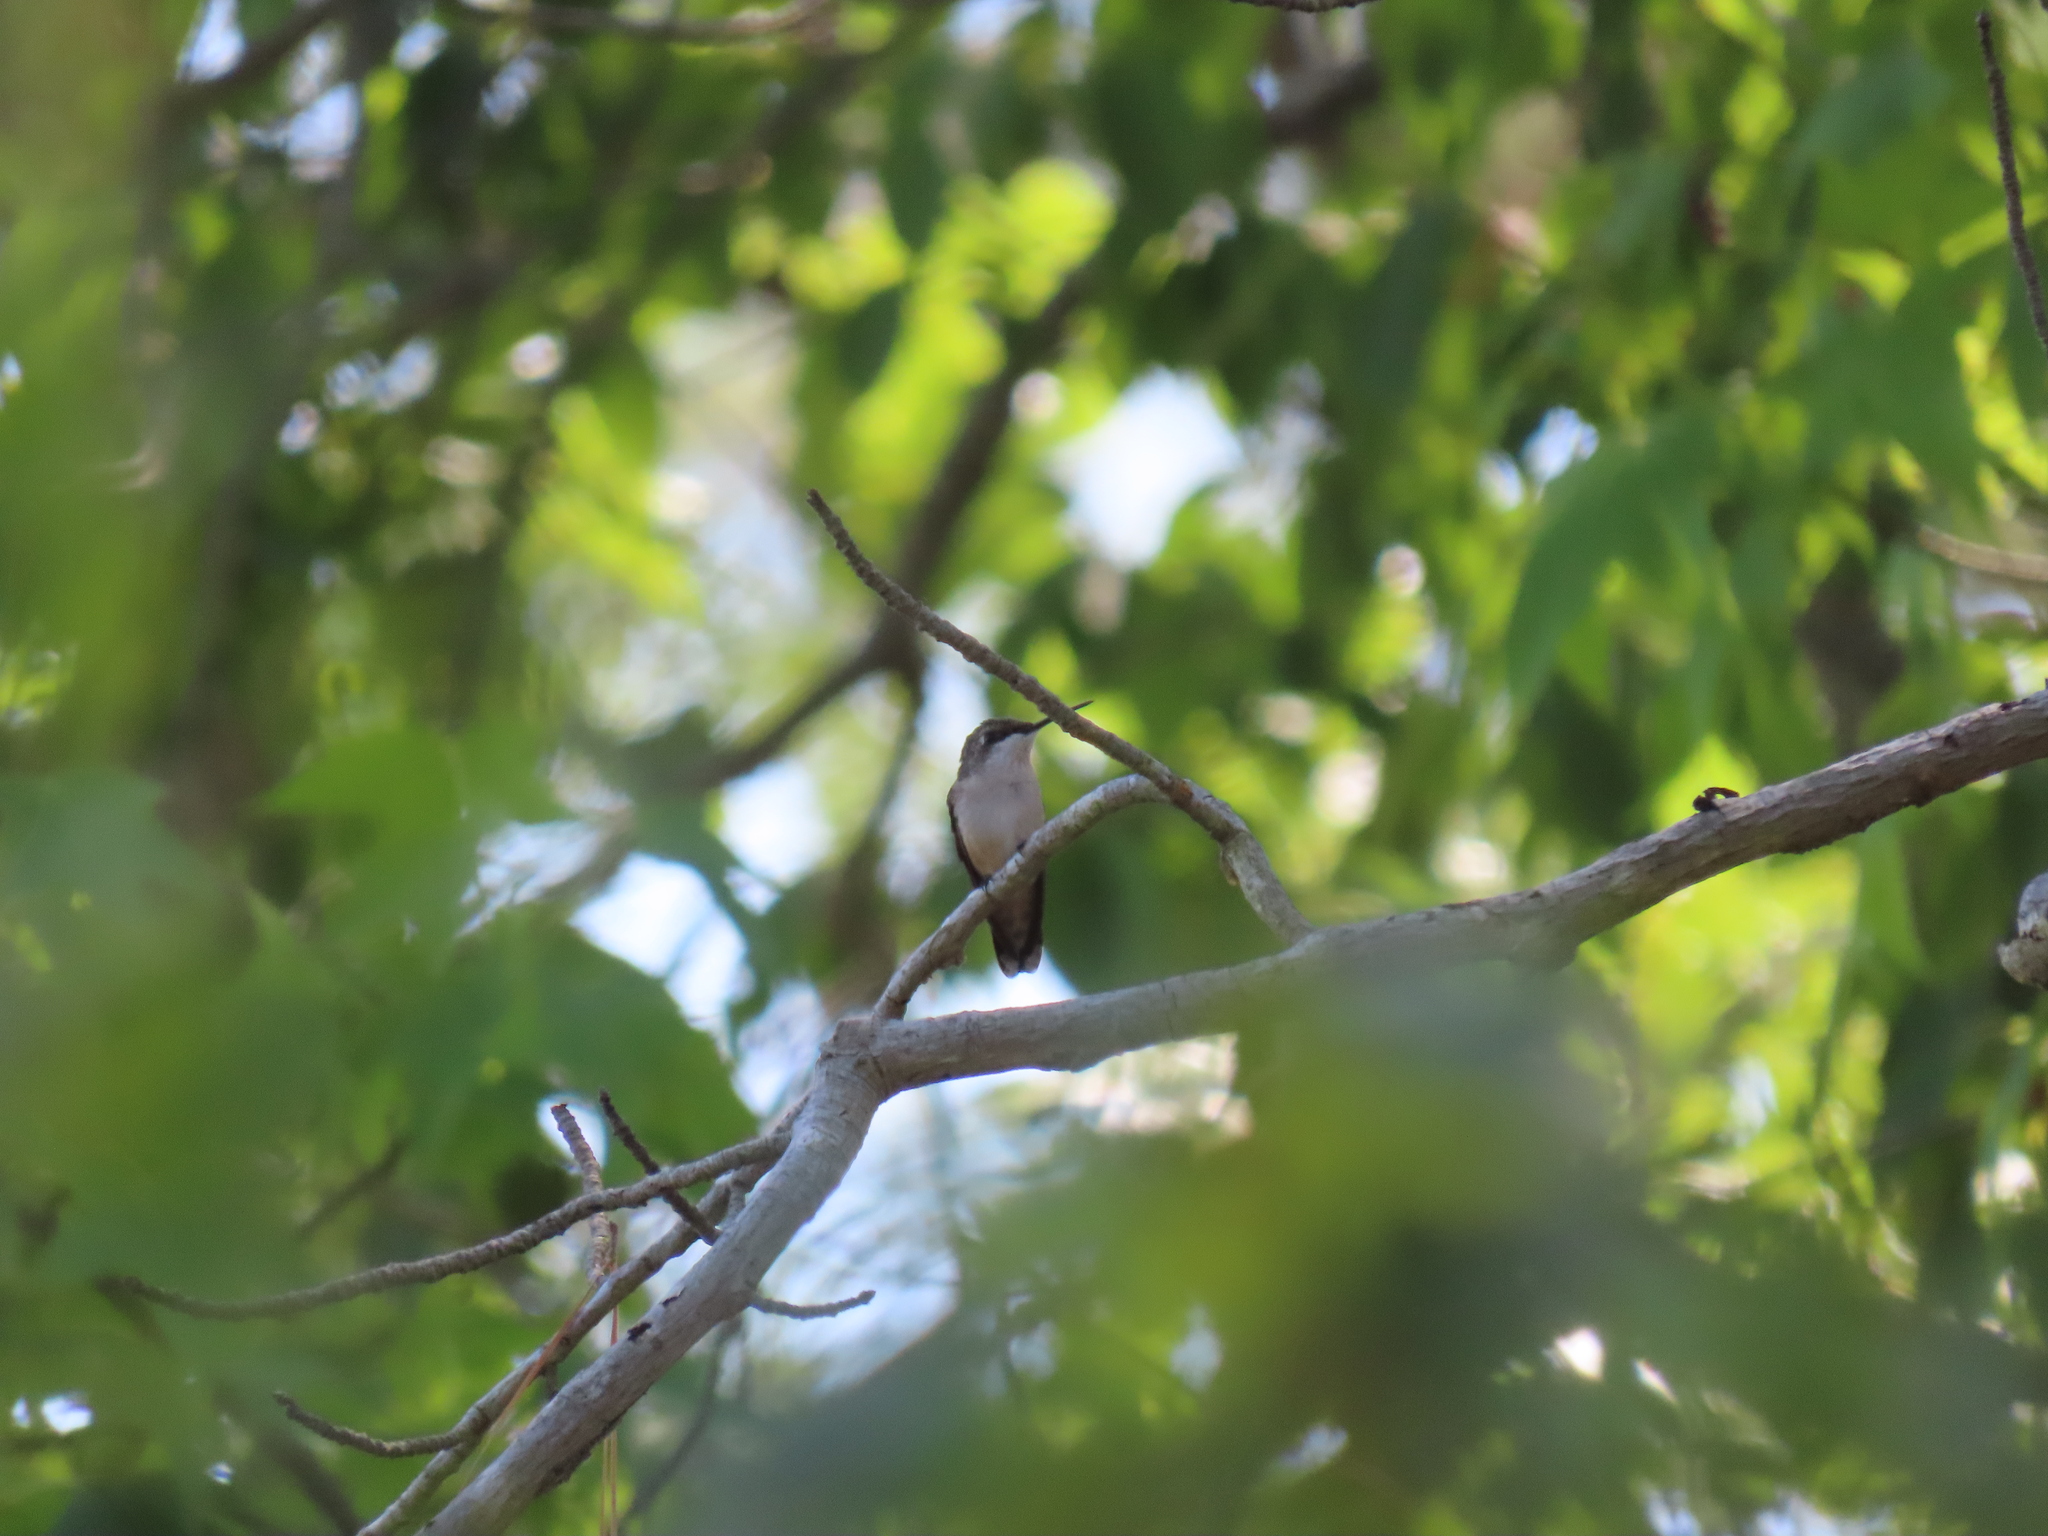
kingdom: Animalia
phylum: Chordata
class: Aves
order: Apodiformes
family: Trochilidae
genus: Archilochus
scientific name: Archilochus colubris
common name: Ruby-throated hummingbird
